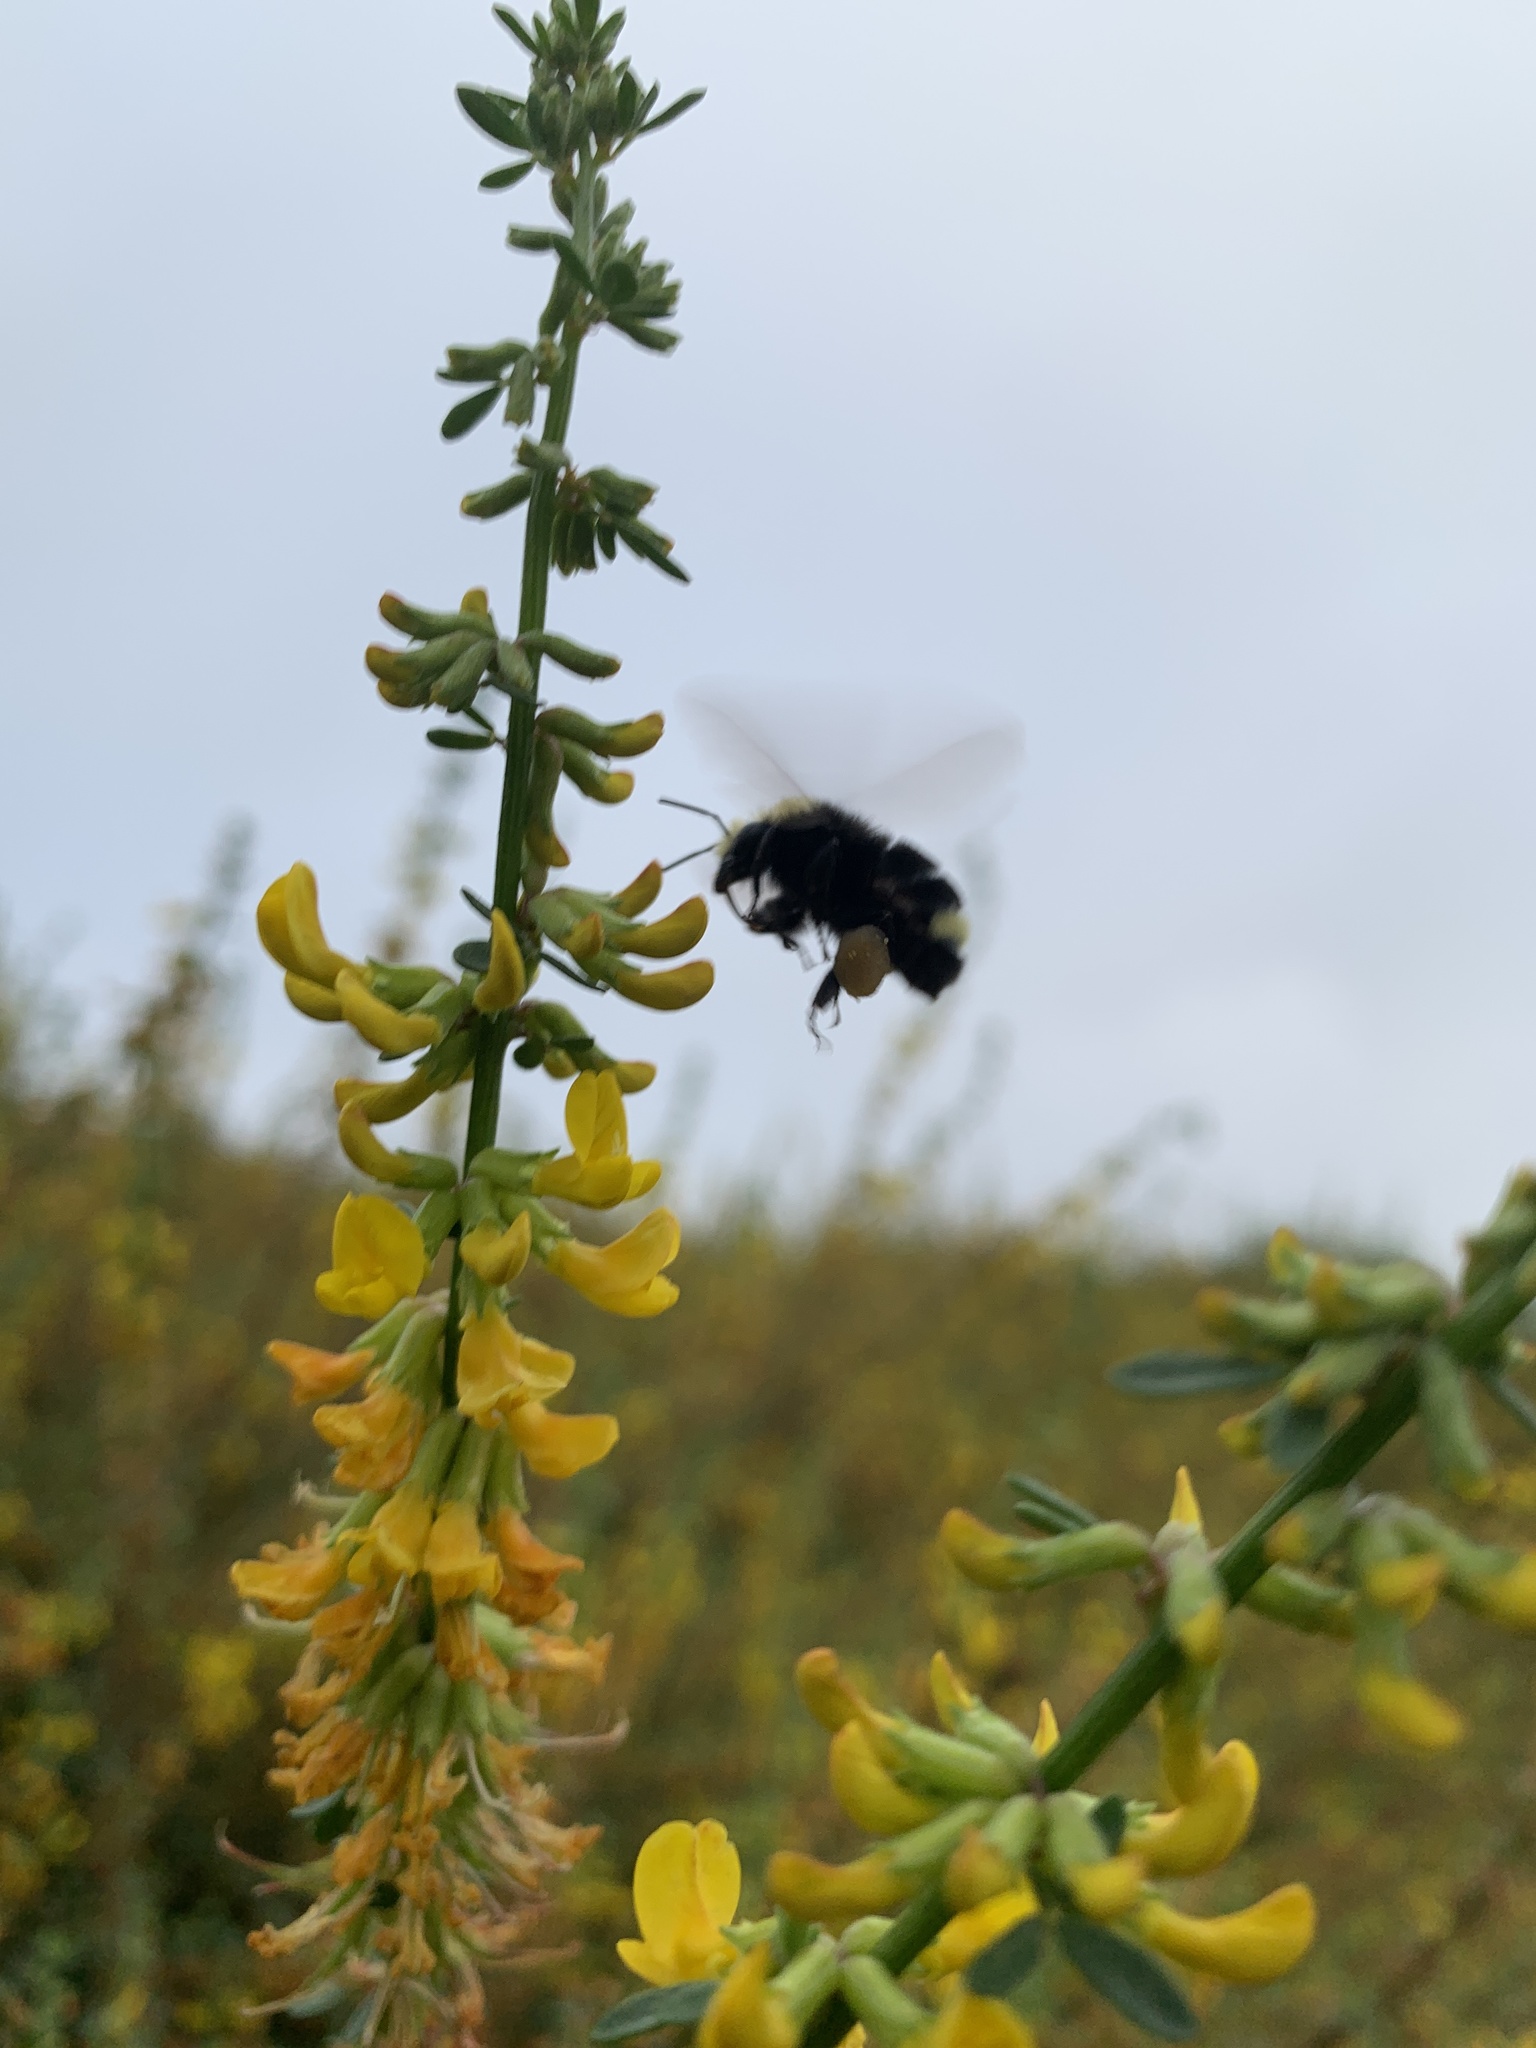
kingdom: Animalia
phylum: Arthropoda
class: Insecta
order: Hymenoptera
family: Apidae
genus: Bombus
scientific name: Bombus vosnesenskii
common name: Vosnesensky bumble bee
